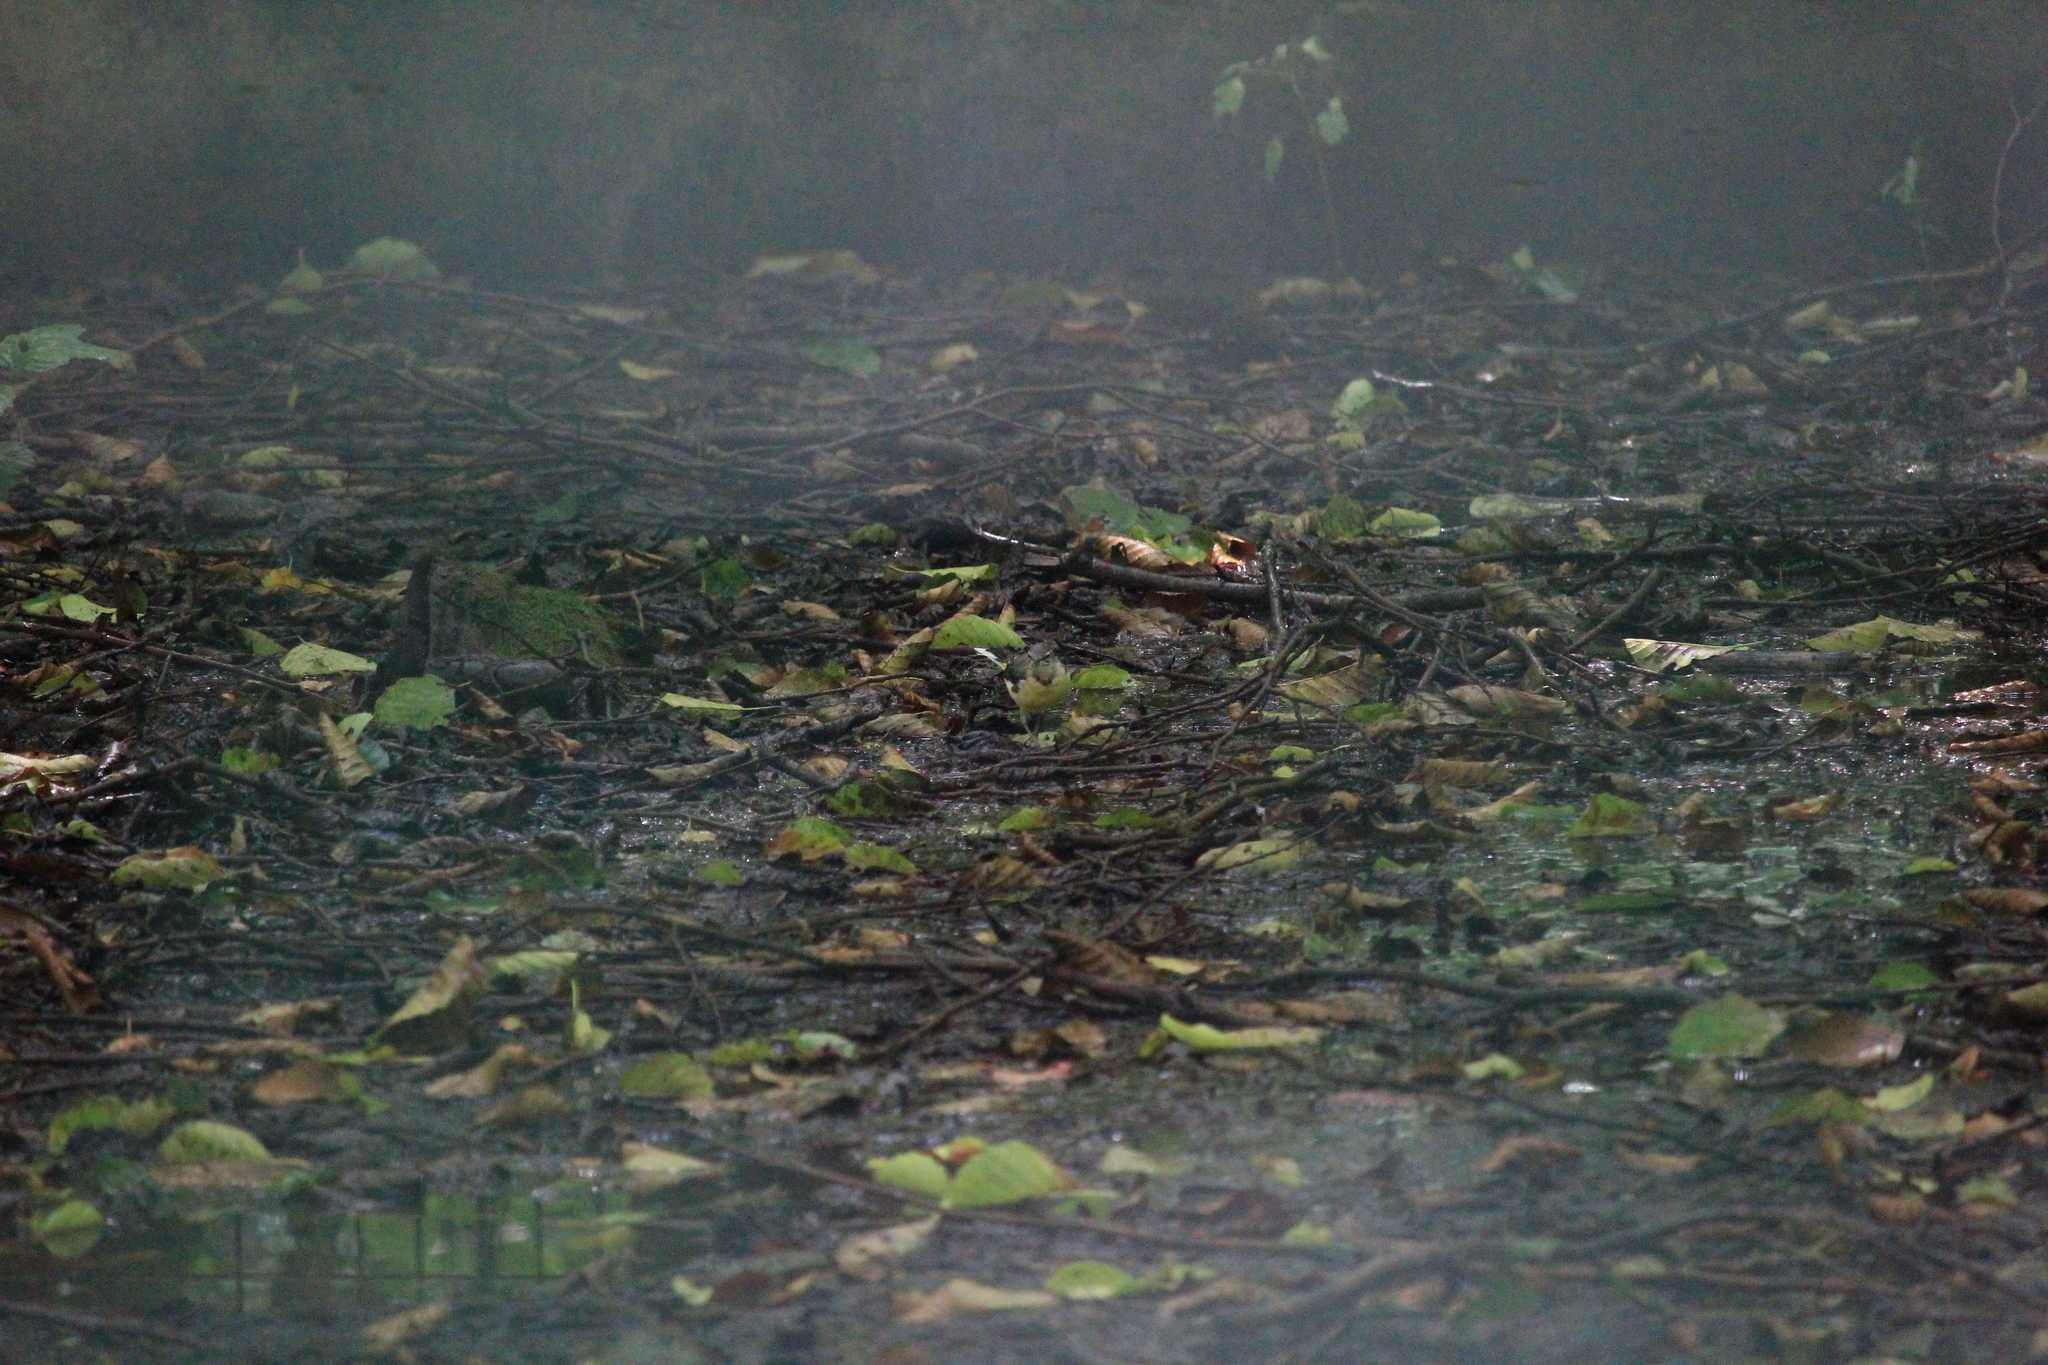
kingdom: Animalia
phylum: Chordata
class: Aves
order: Passeriformes
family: Motacillidae
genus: Motacilla
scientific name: Motacilla cinerea
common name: Grey wagtail
